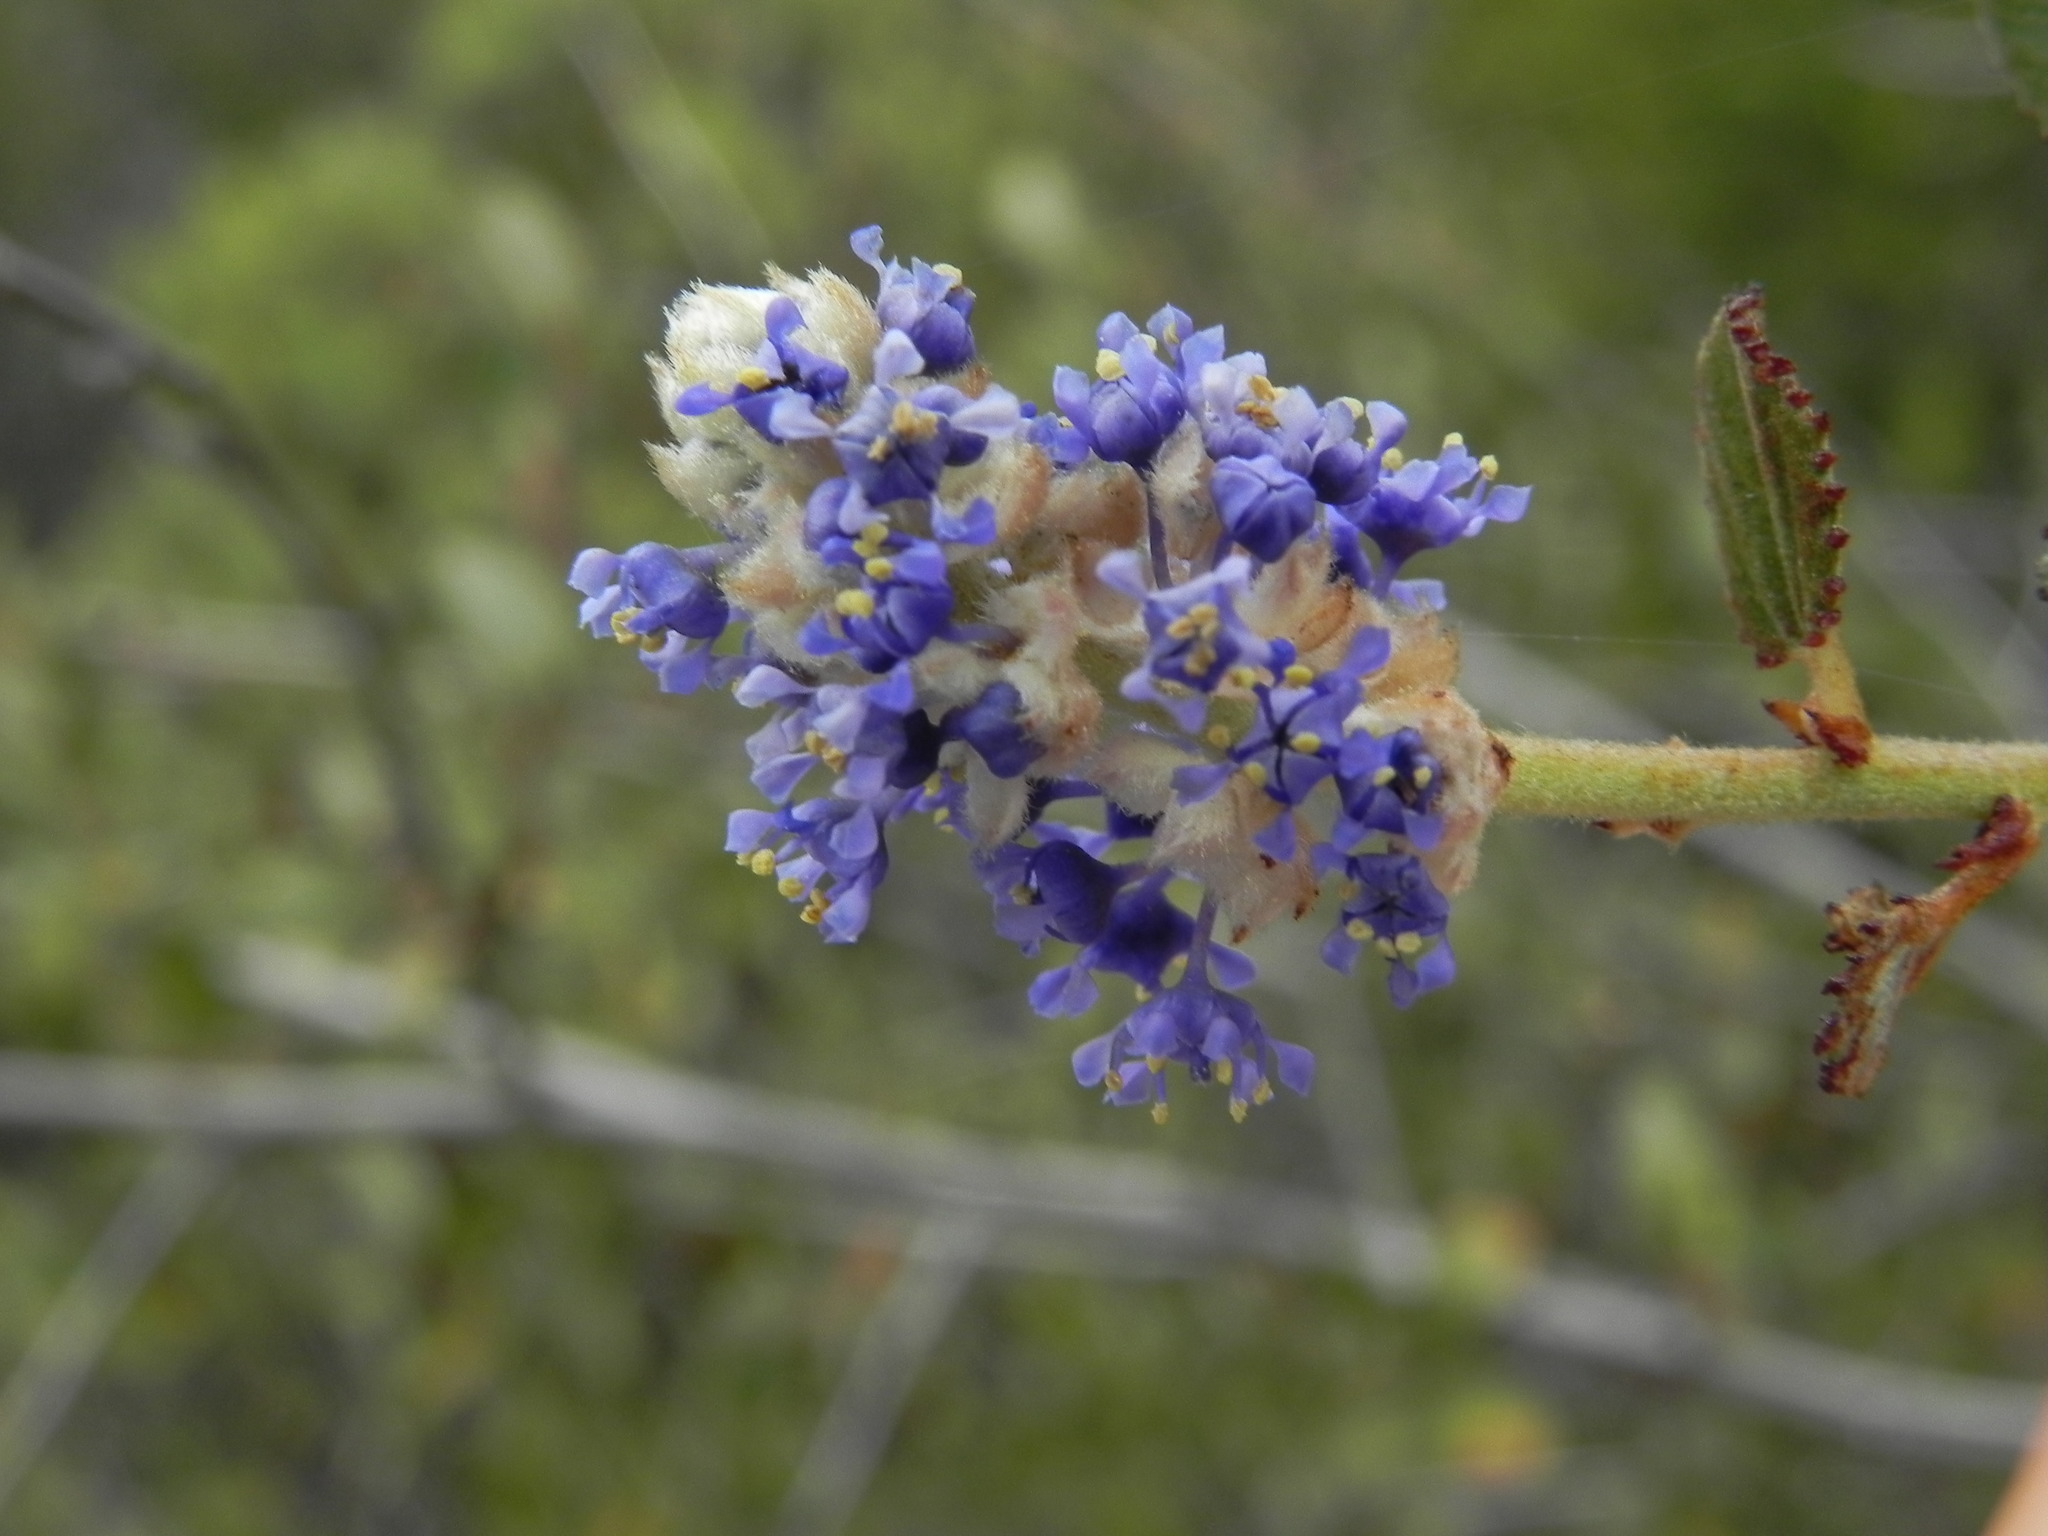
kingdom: Plantae
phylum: Tracheophyta
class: Magnoliopsida
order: Rosales
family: Rhamnaceae
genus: Ceanothus
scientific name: Ceanothus tomentosus
